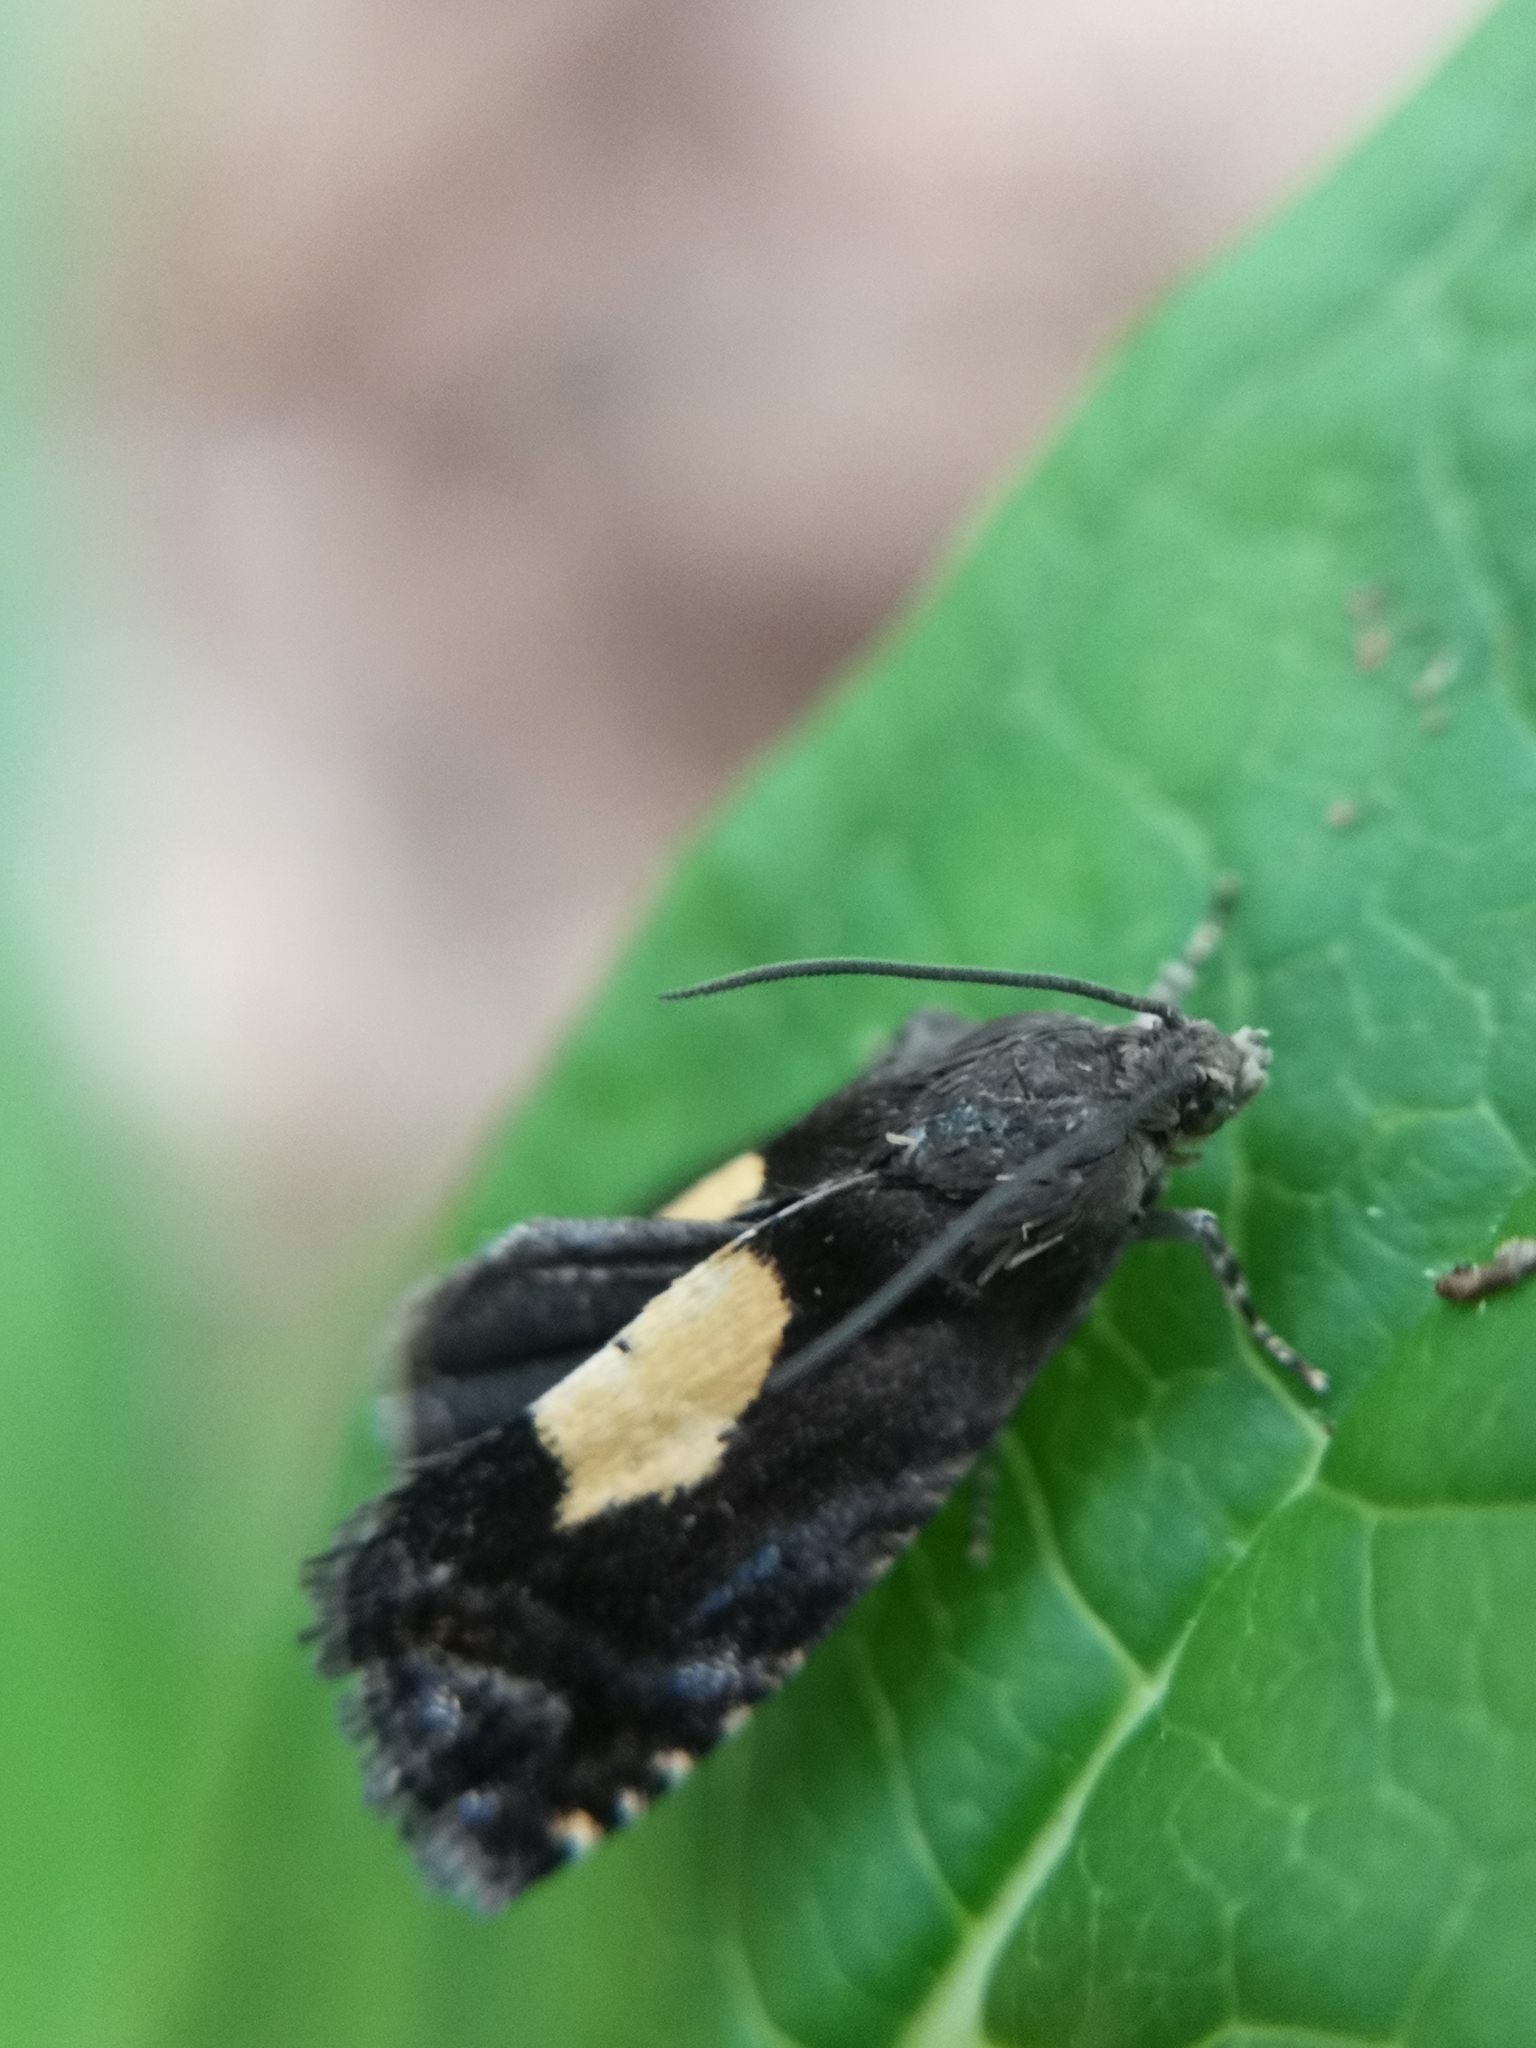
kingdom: Animalia
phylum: Arthropoda
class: Insecta
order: Lepidoptera
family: Tortricidae
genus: Pammene
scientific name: Pammene regiana
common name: Regal piercer
